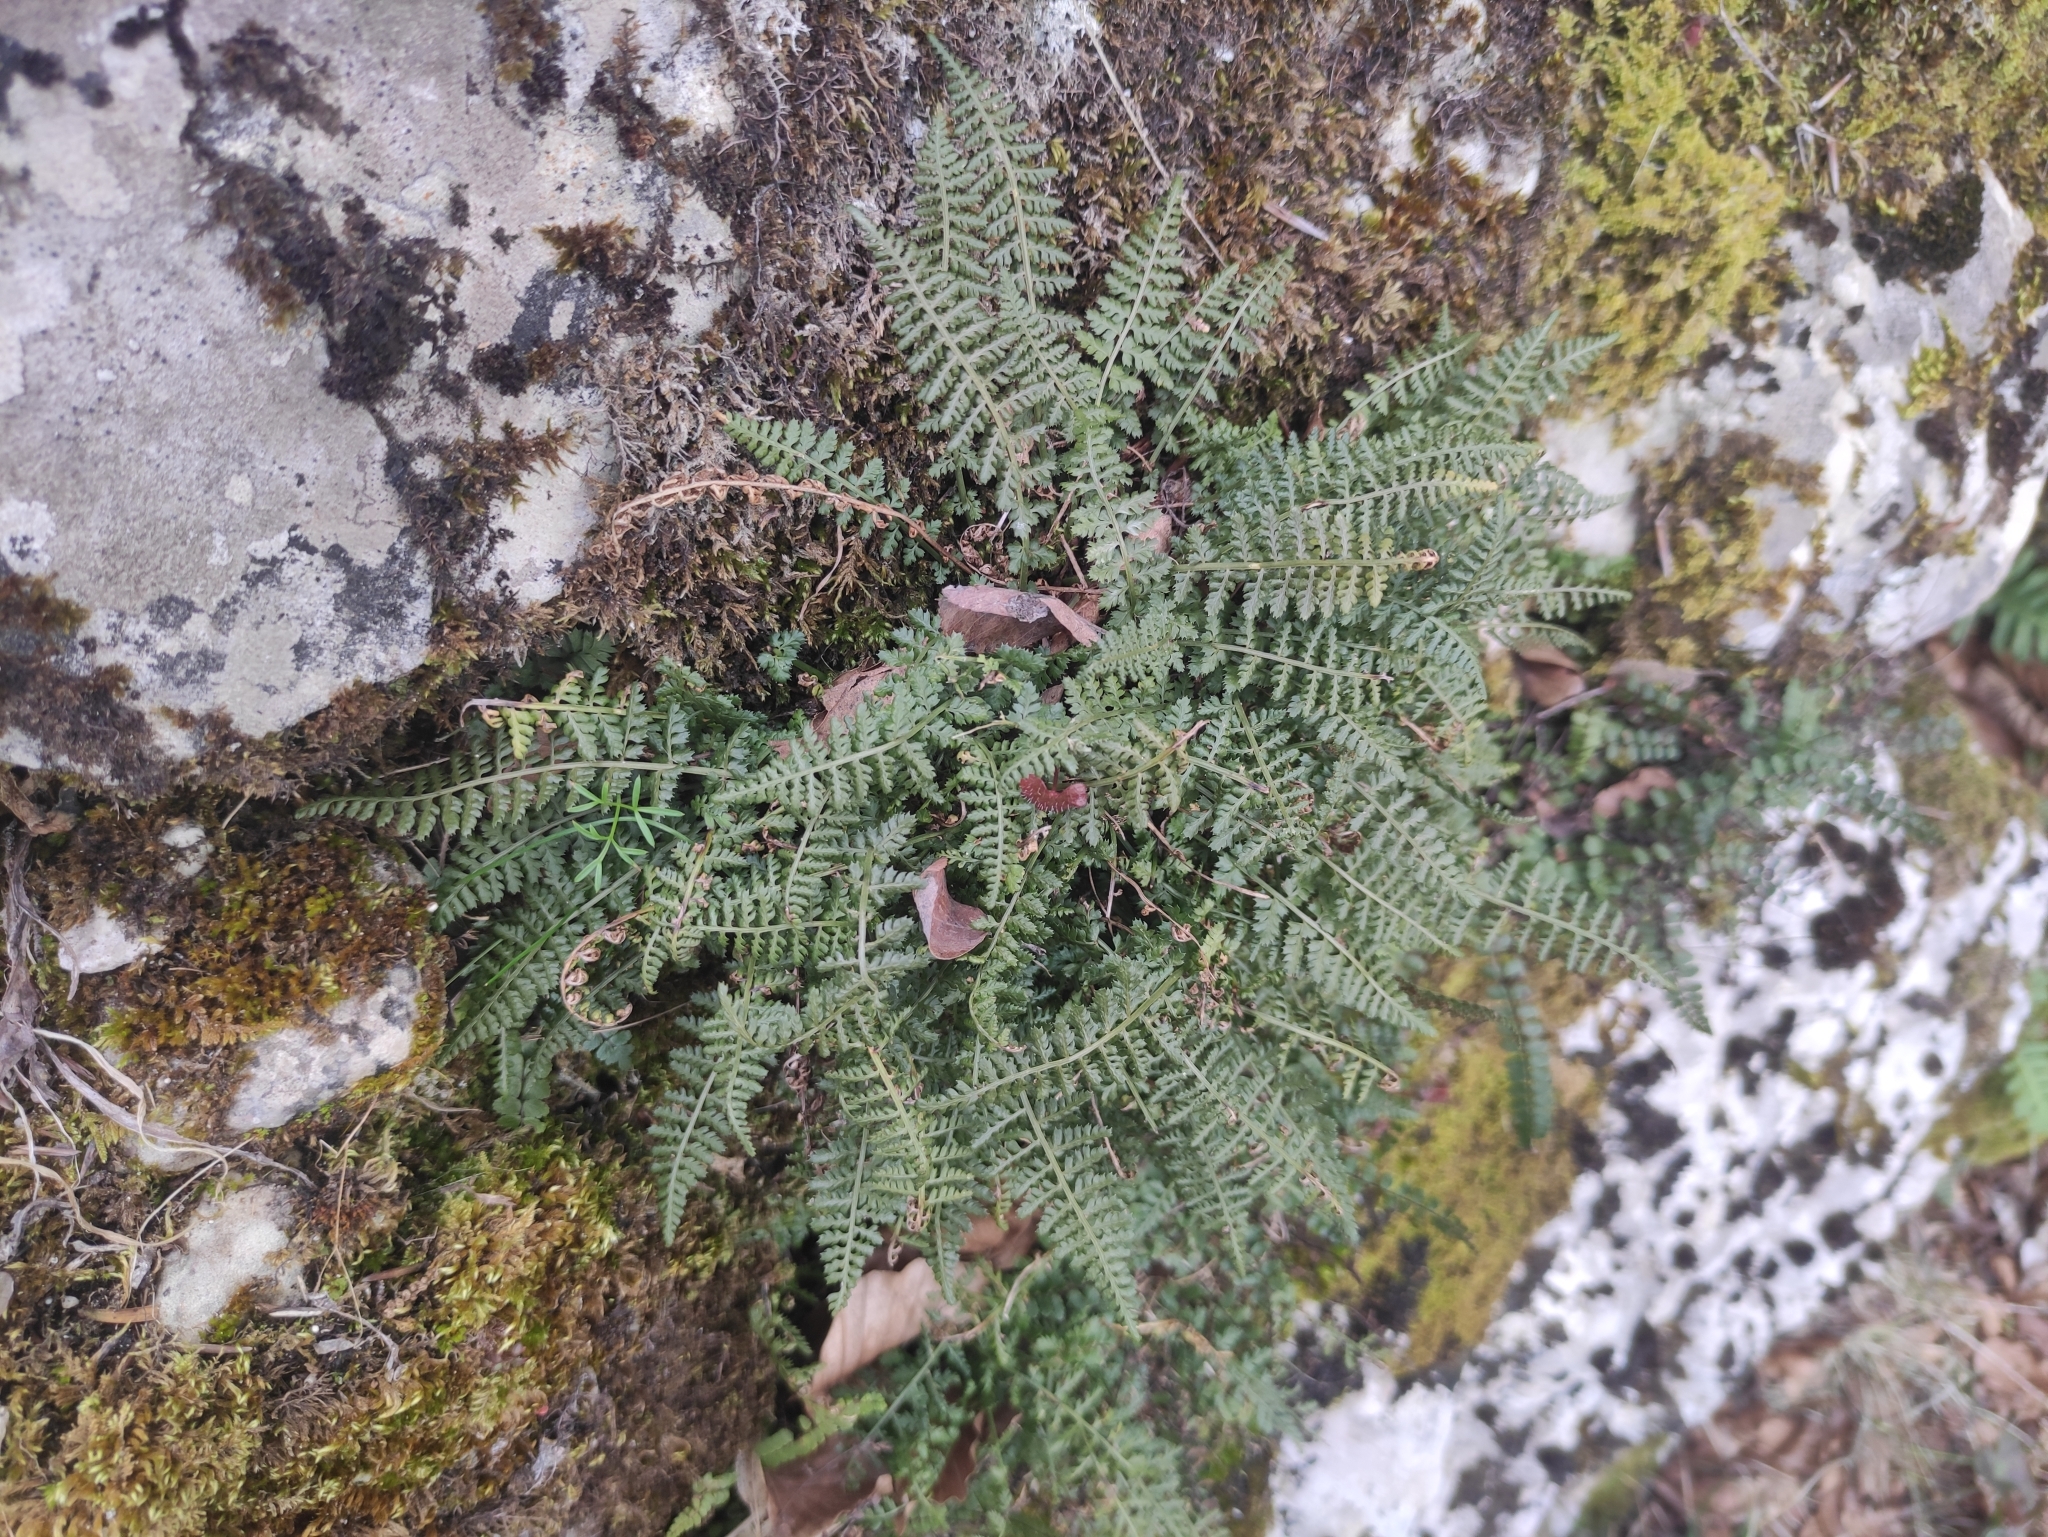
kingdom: Plantae
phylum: Tracheophyta
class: Polypodiopsida
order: Polypodiales
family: Aspleniaceae
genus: Asplenium
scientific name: Asplenium fontanum
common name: Fountain spleenwort
